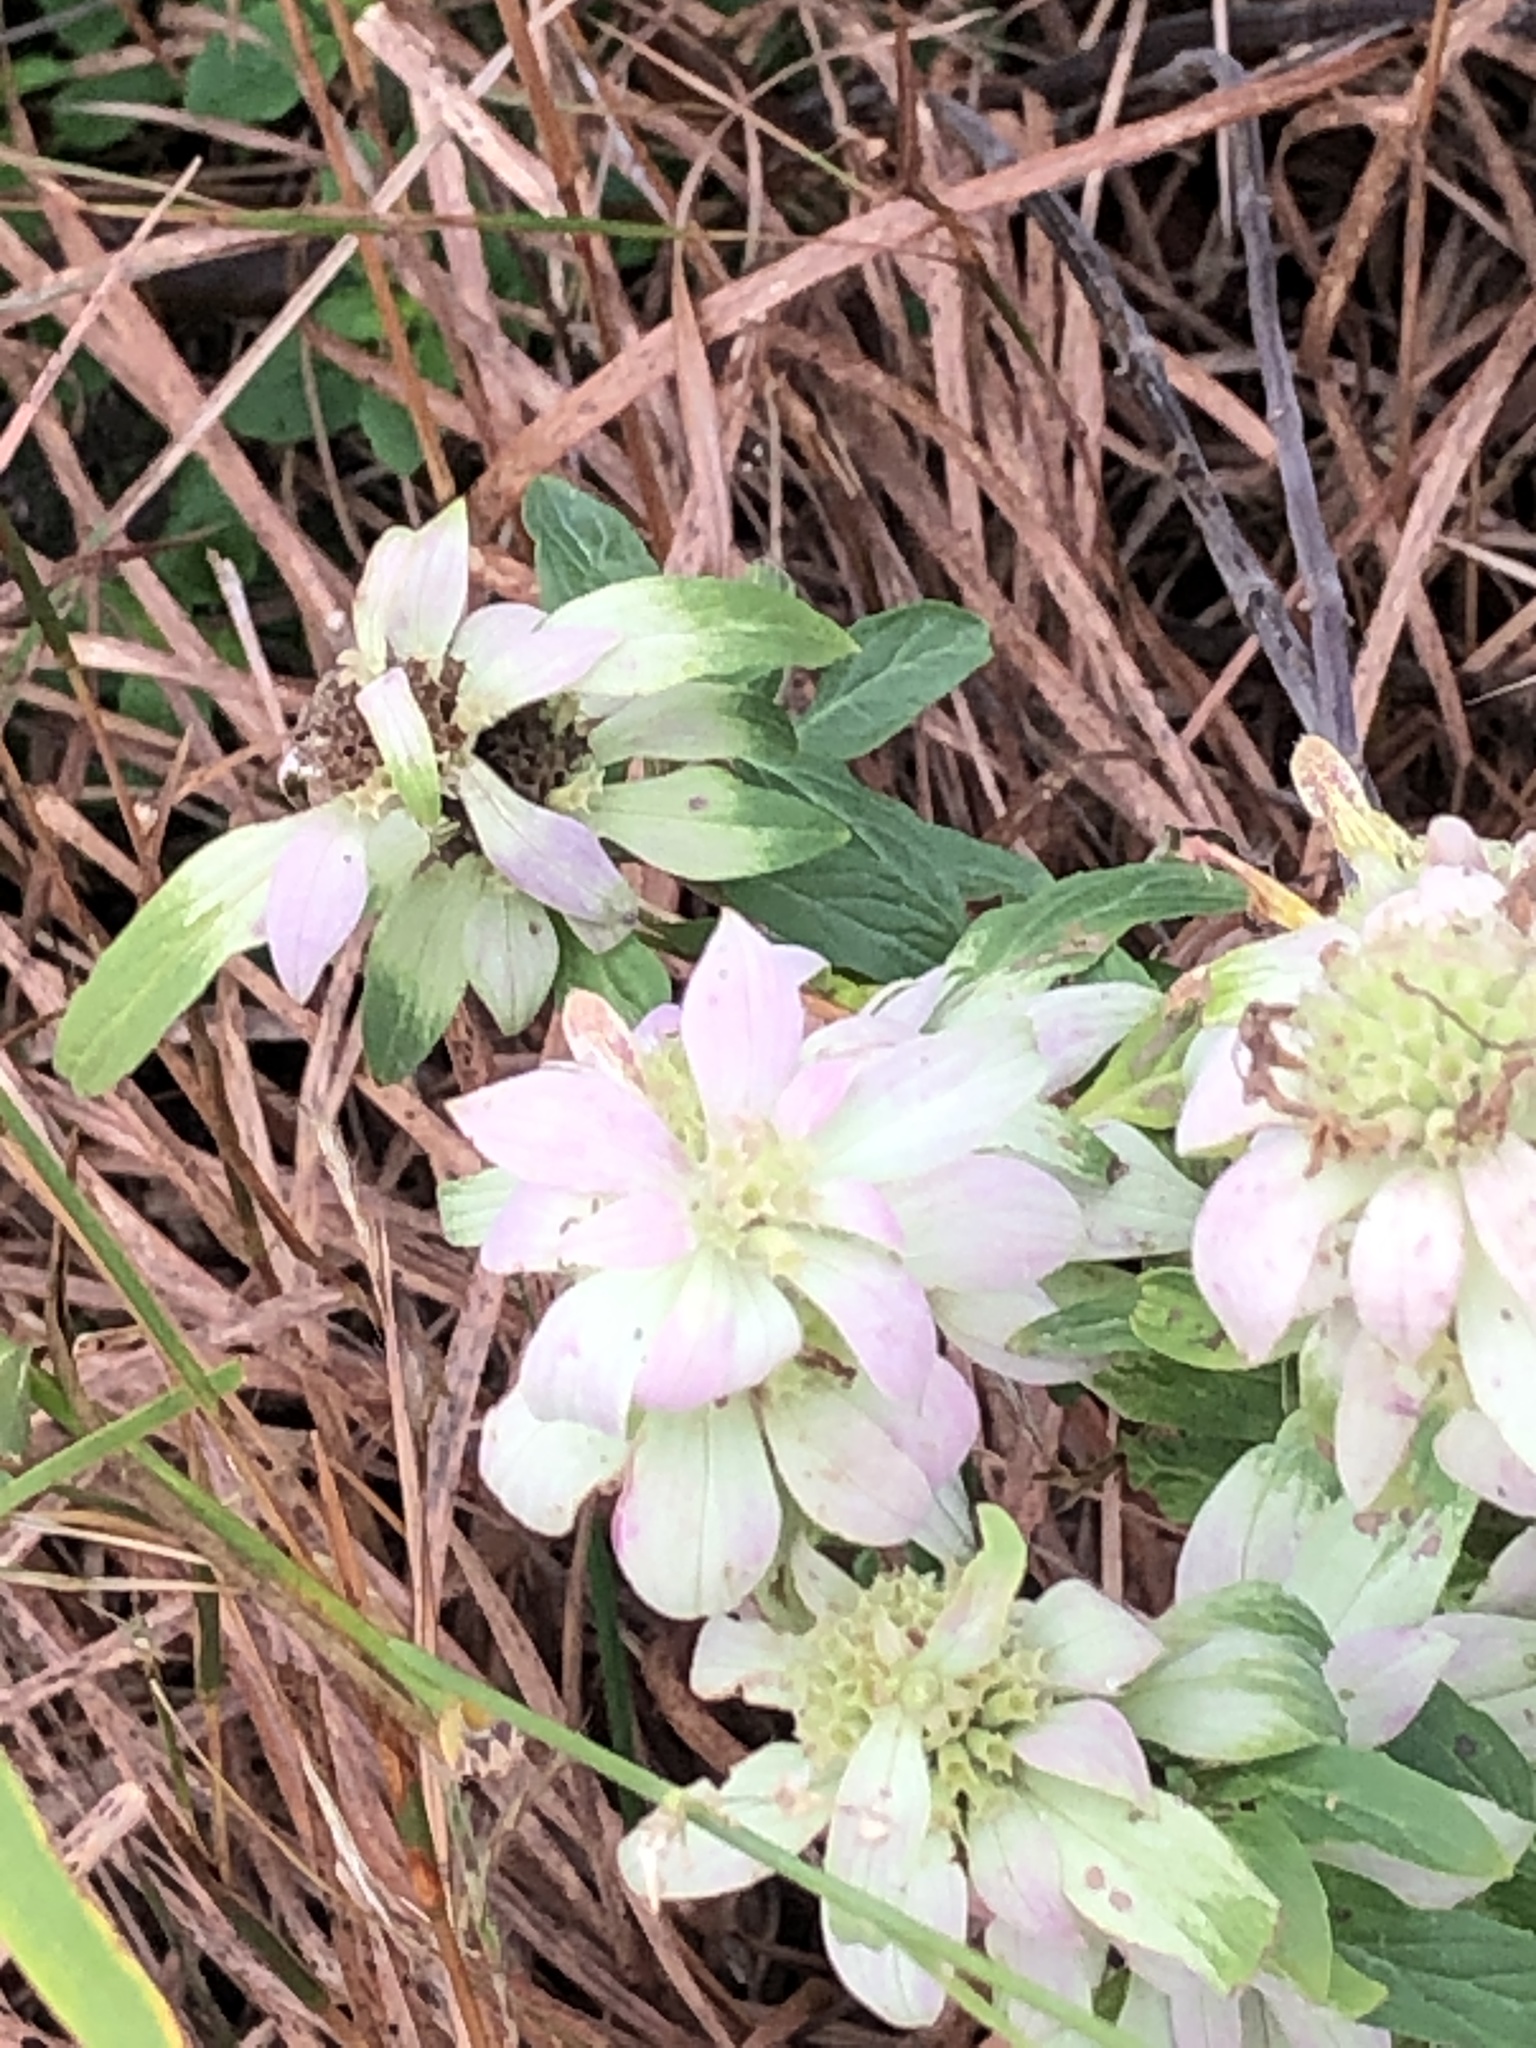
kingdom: Plantae
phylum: Tracheophyta
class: Magnoliopsida
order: Lamiales
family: Lamiaceae
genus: Monarda
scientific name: Monarda punctata
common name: Dotted monarda
